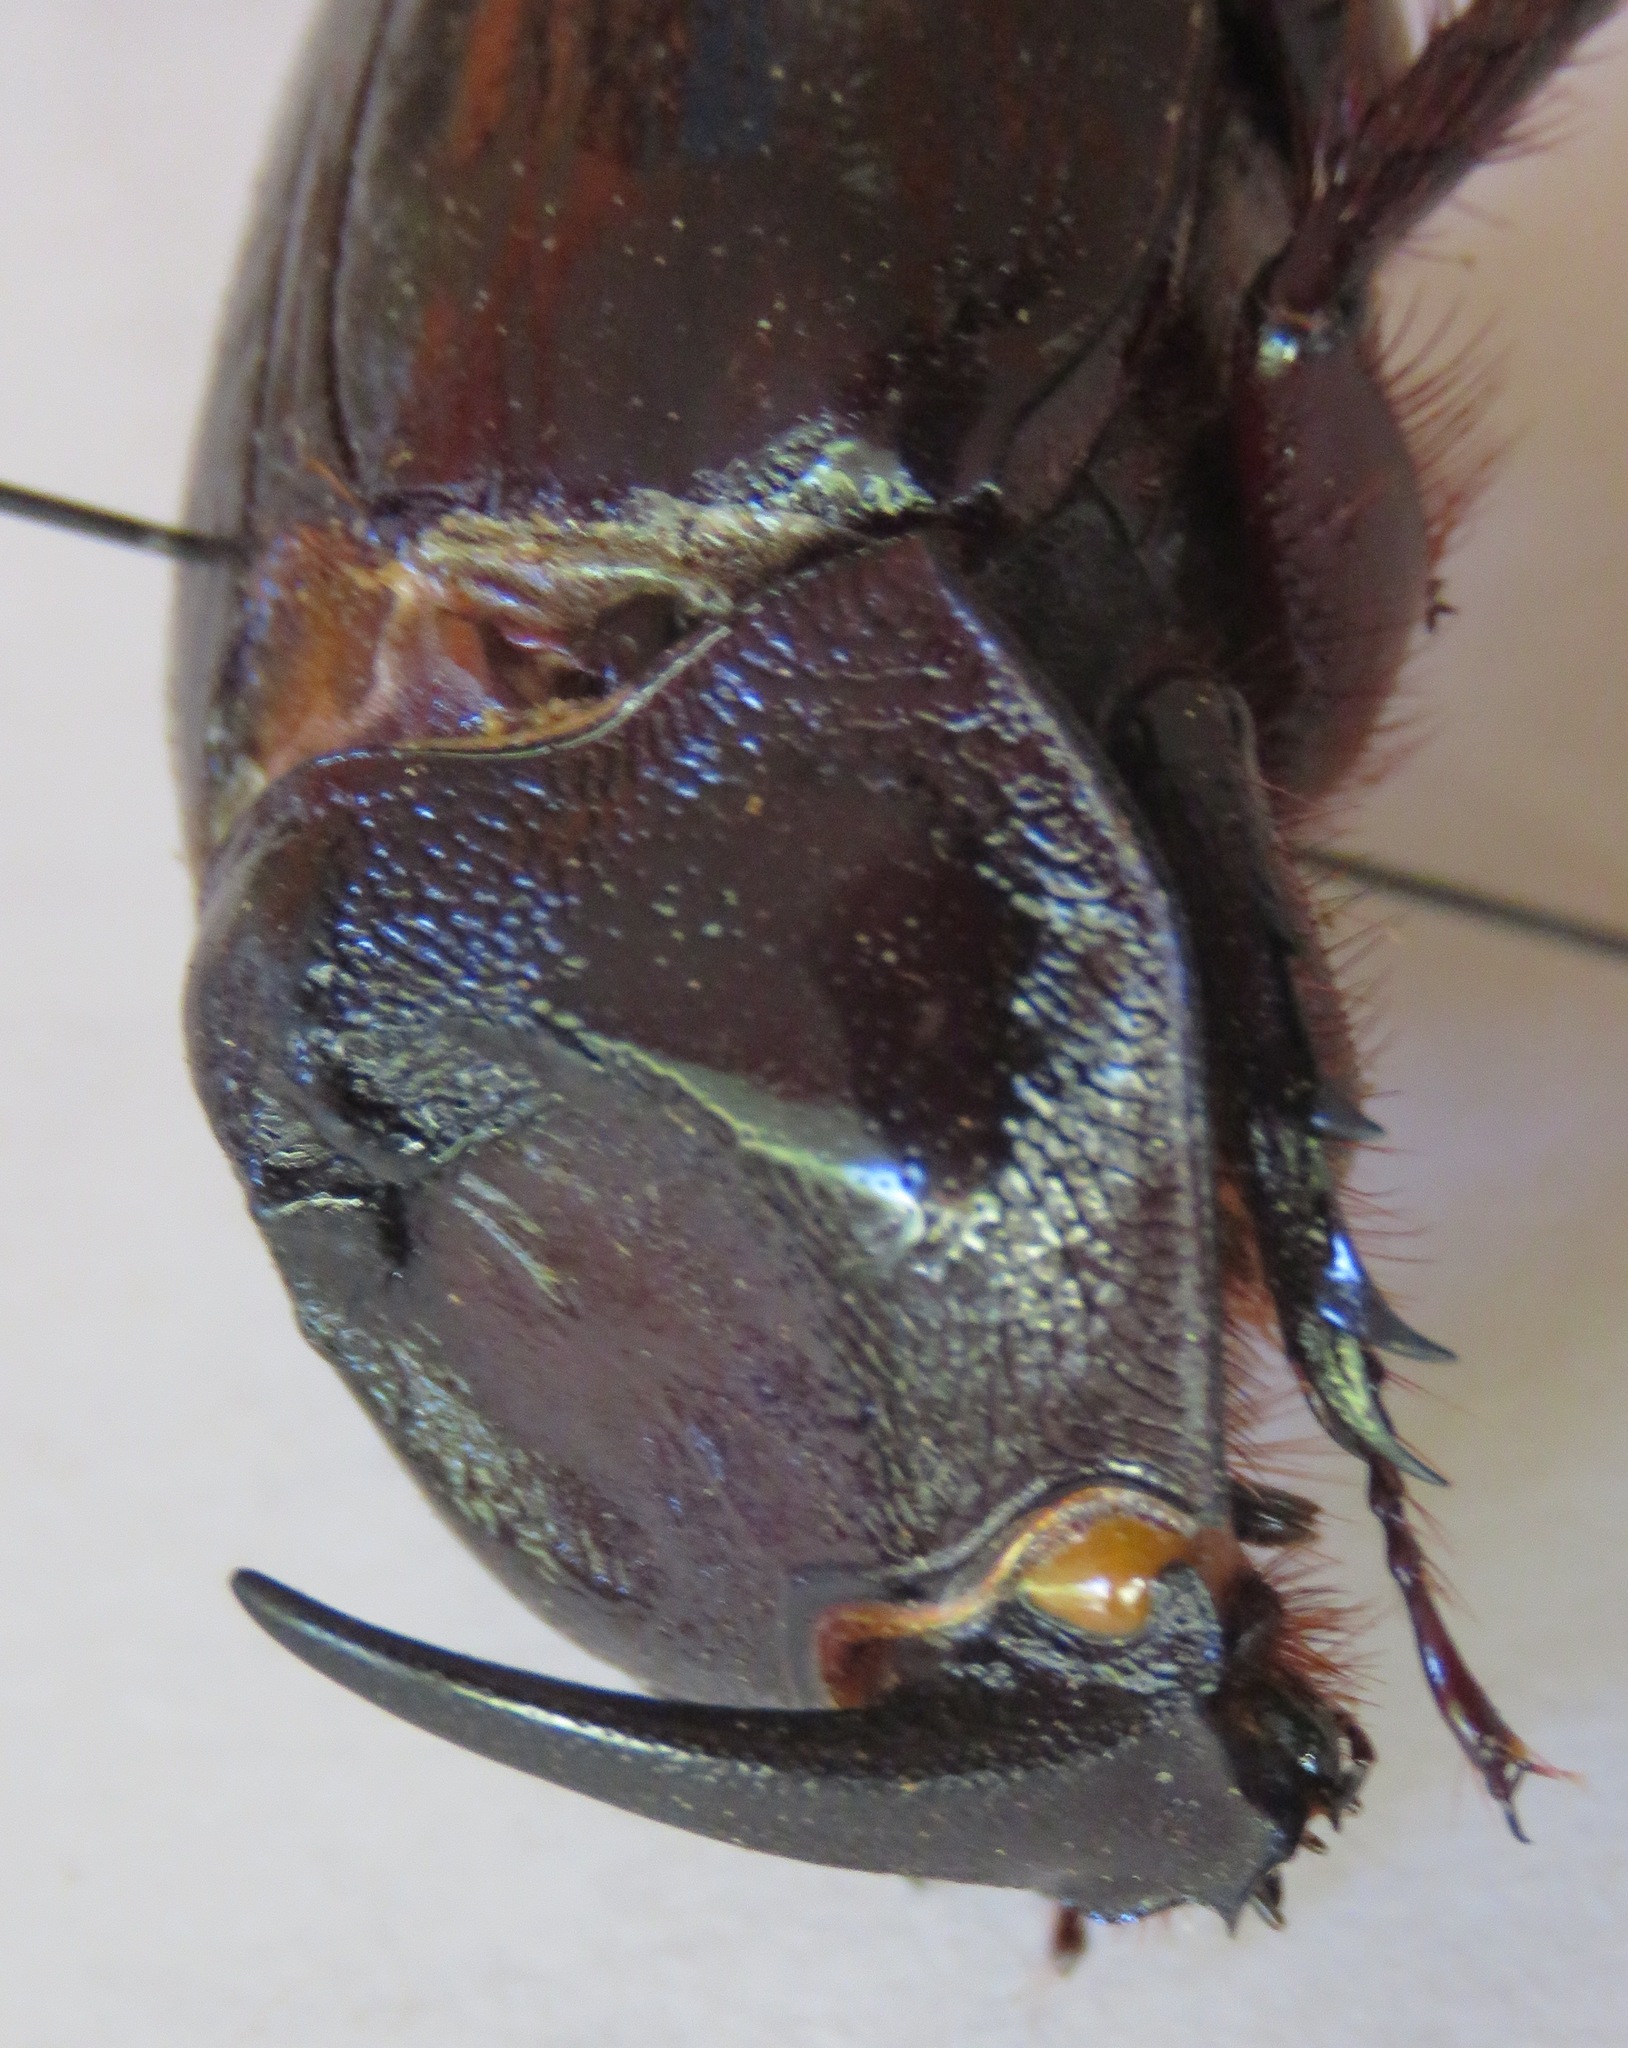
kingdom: Animalia
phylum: Arthropoda
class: Insecta
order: Coleoptera
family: Scarabaeidae
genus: Enema
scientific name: Enema pan
